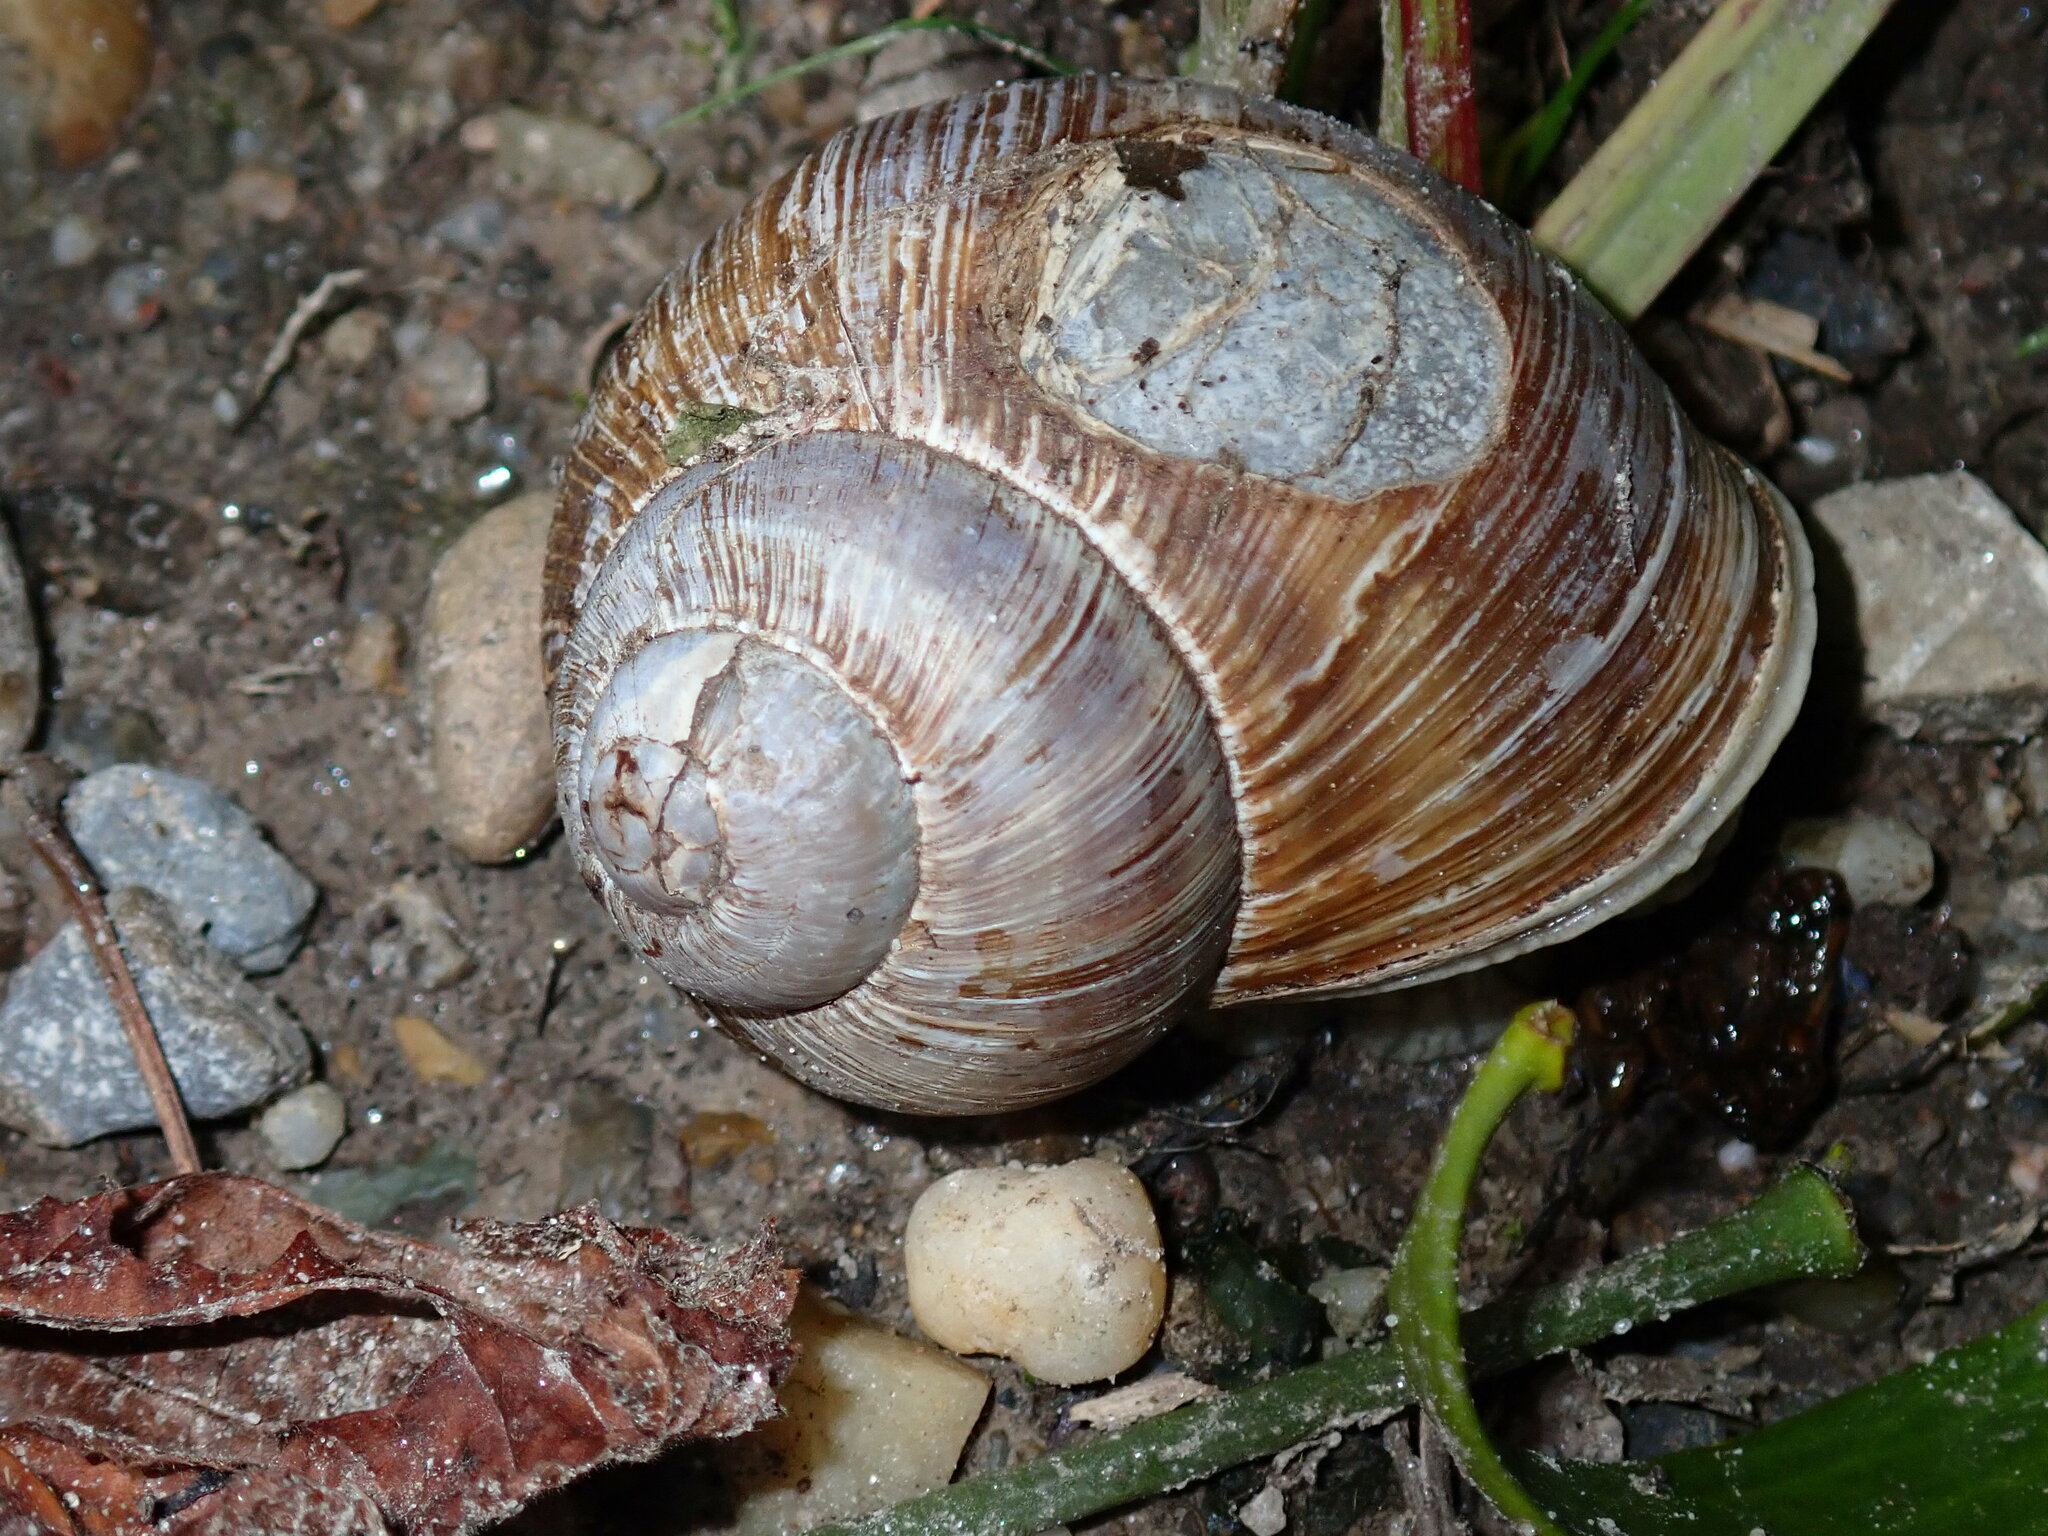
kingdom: Animalia
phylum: Mollusca
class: Gastropoda
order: Stylommatophora
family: Helicidae
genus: Helix
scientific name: Helix pomatia
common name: Roman snail
